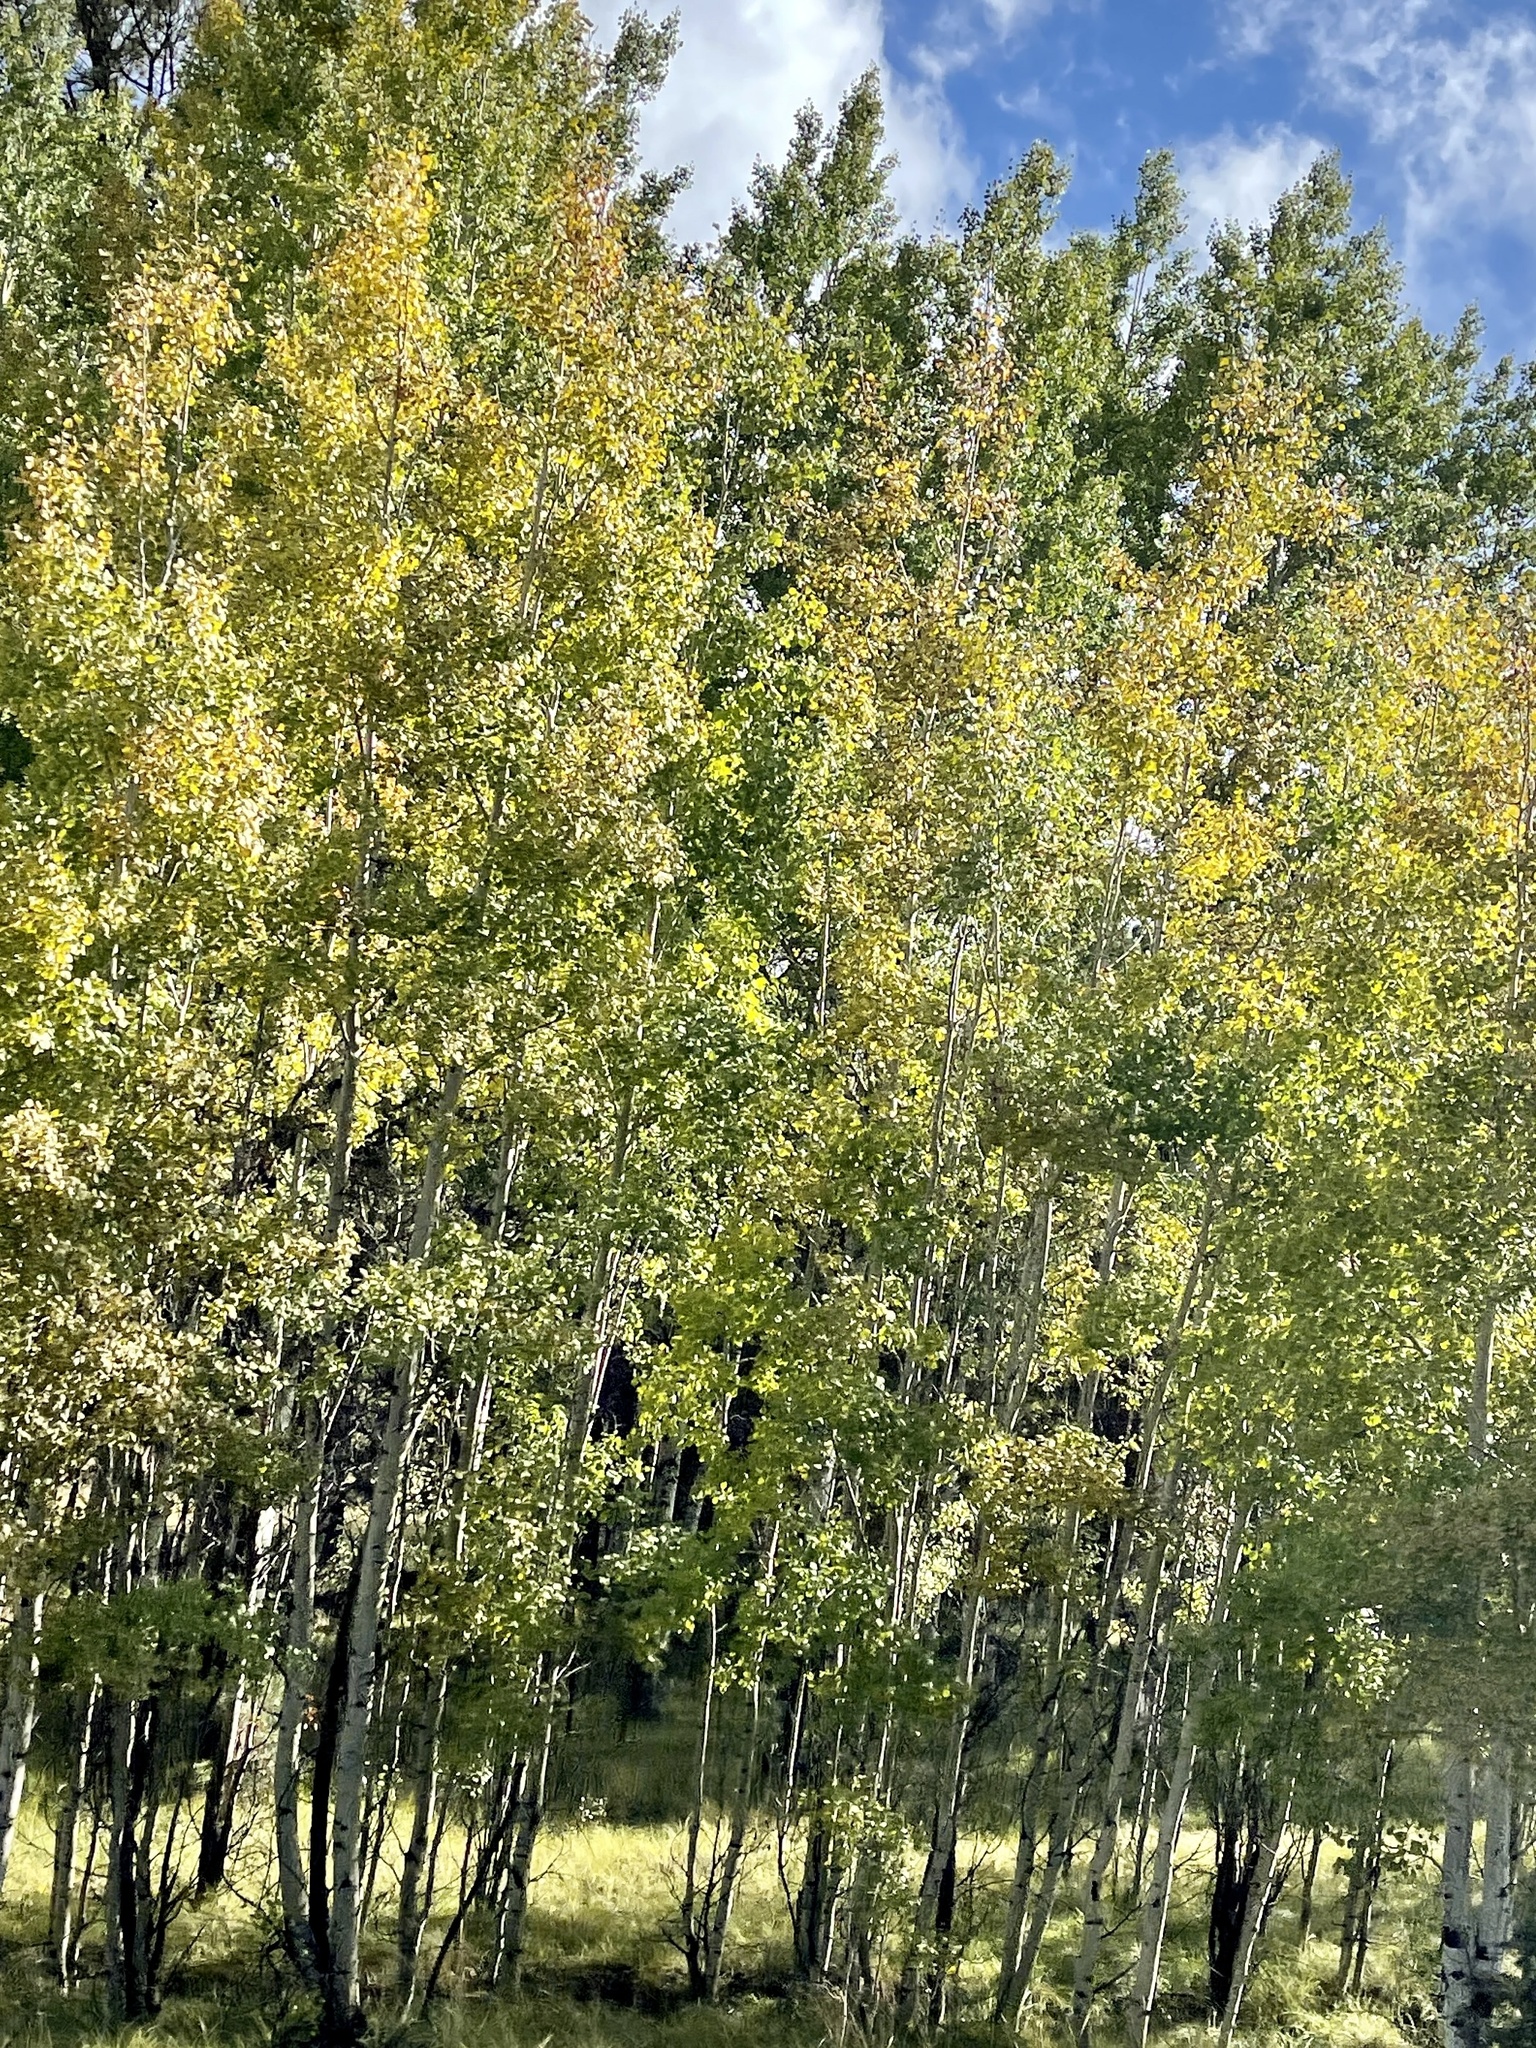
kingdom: Plantae
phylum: Tracheophyta
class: Magnoliopsida
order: Malpighiales
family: Salicaceae
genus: Populus
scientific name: Populus tremuloides
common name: Quaking aspen
